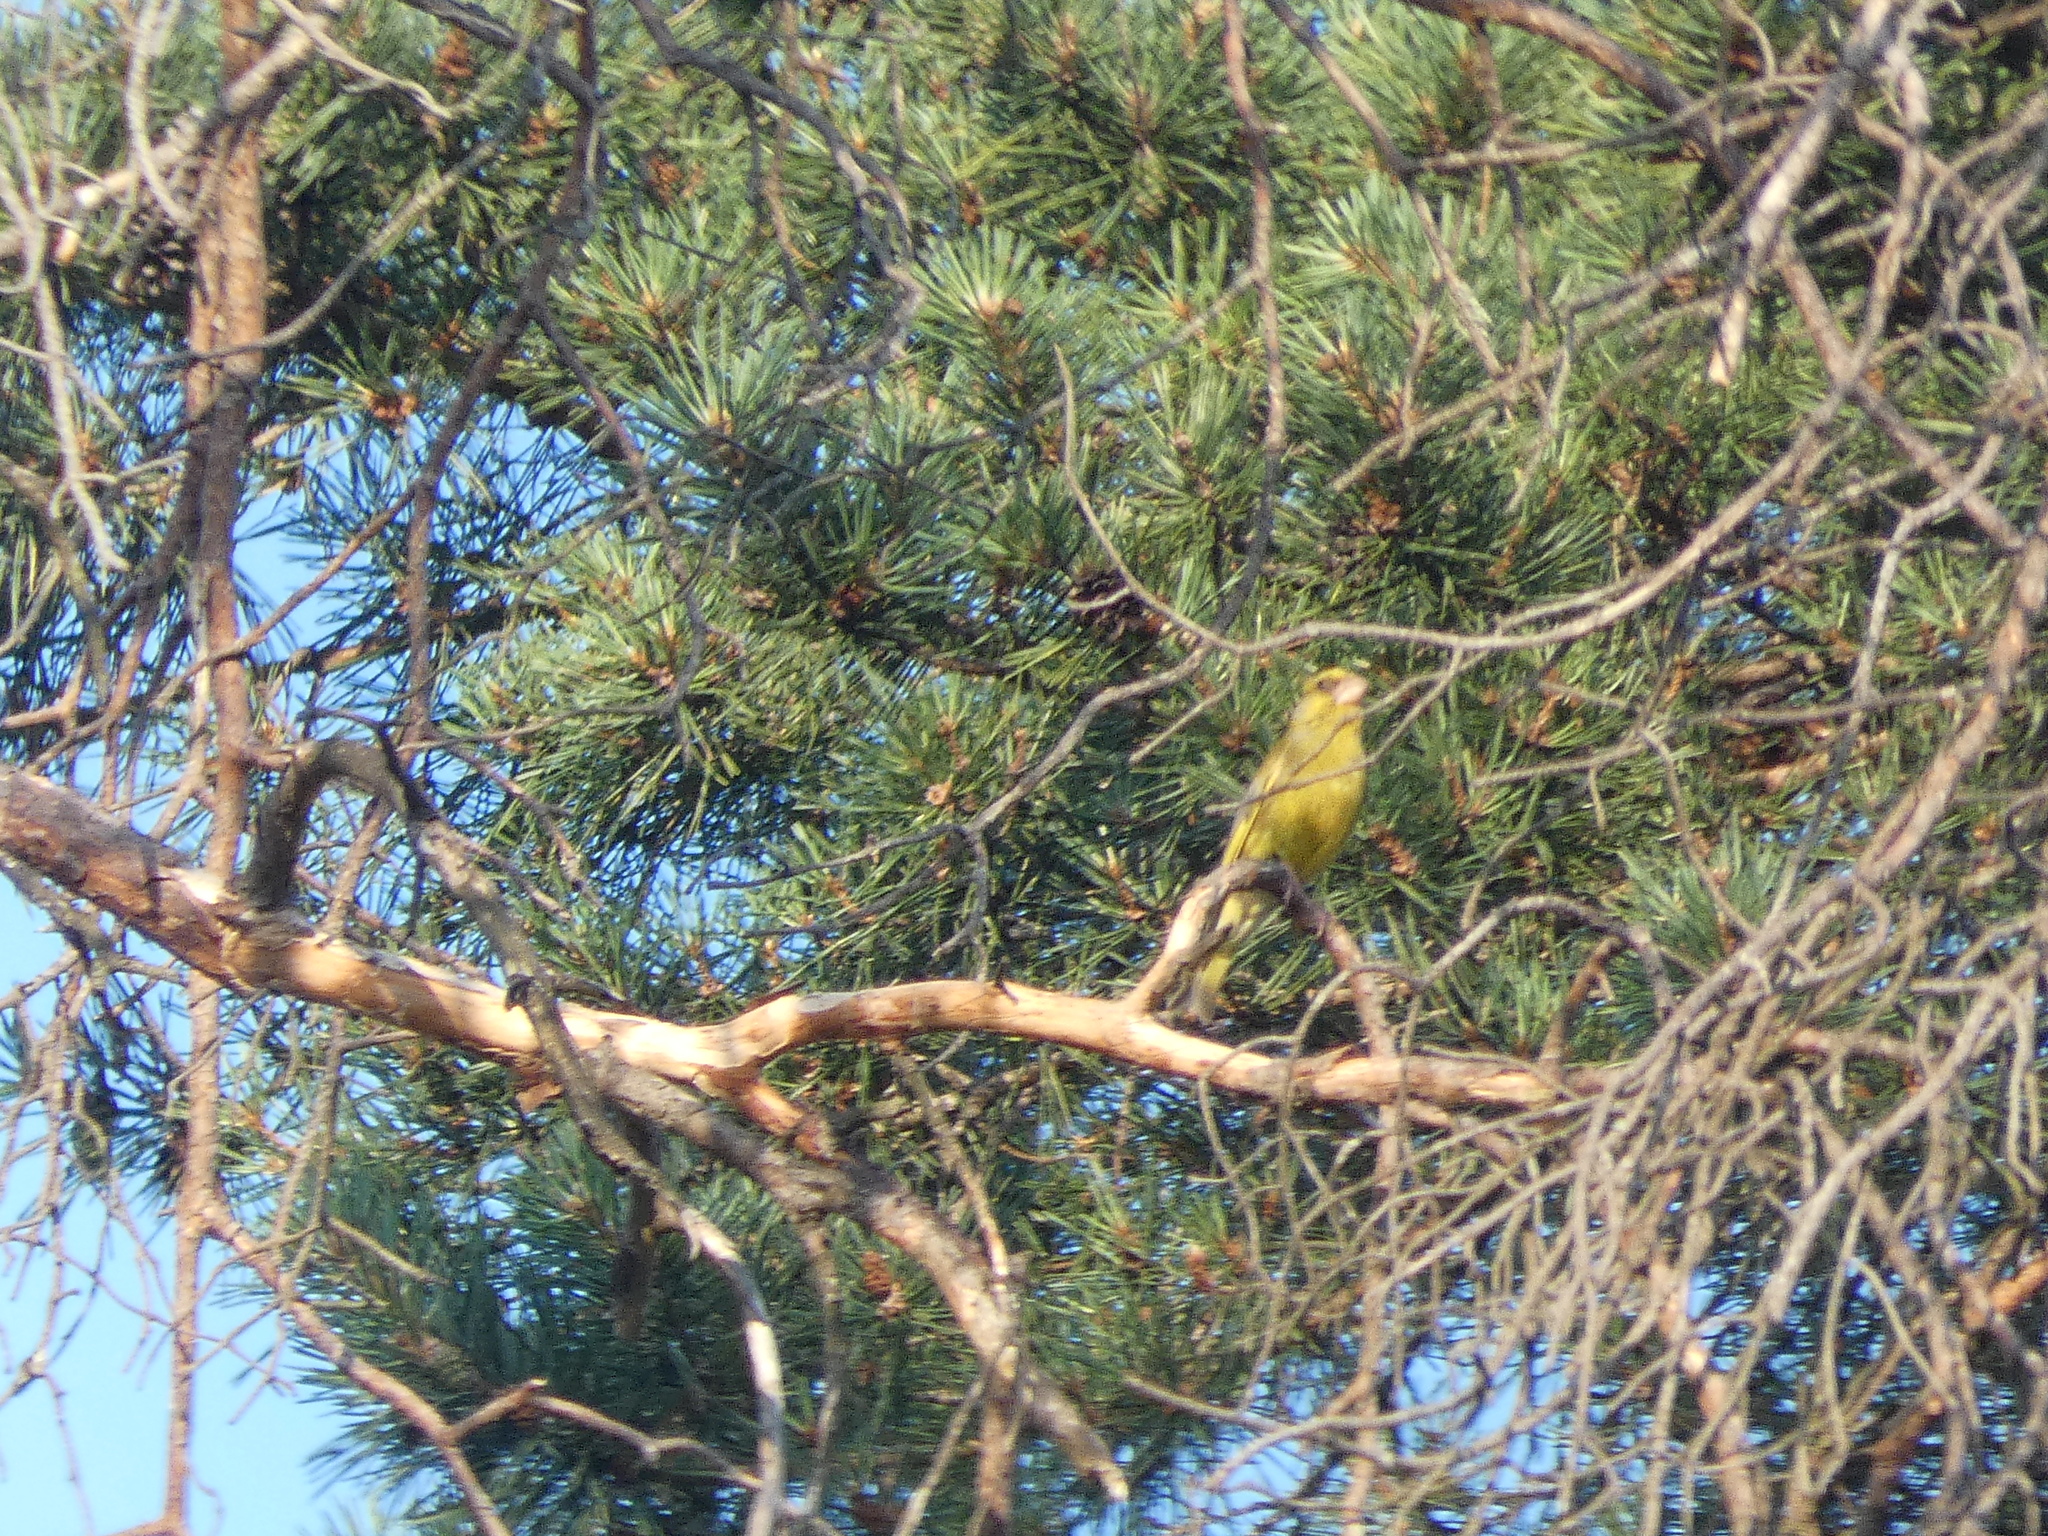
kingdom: Plantae
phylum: Tracheophyta
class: Liliopsida
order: Poales
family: Poaceae
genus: Chloris
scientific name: Chloris chloris
